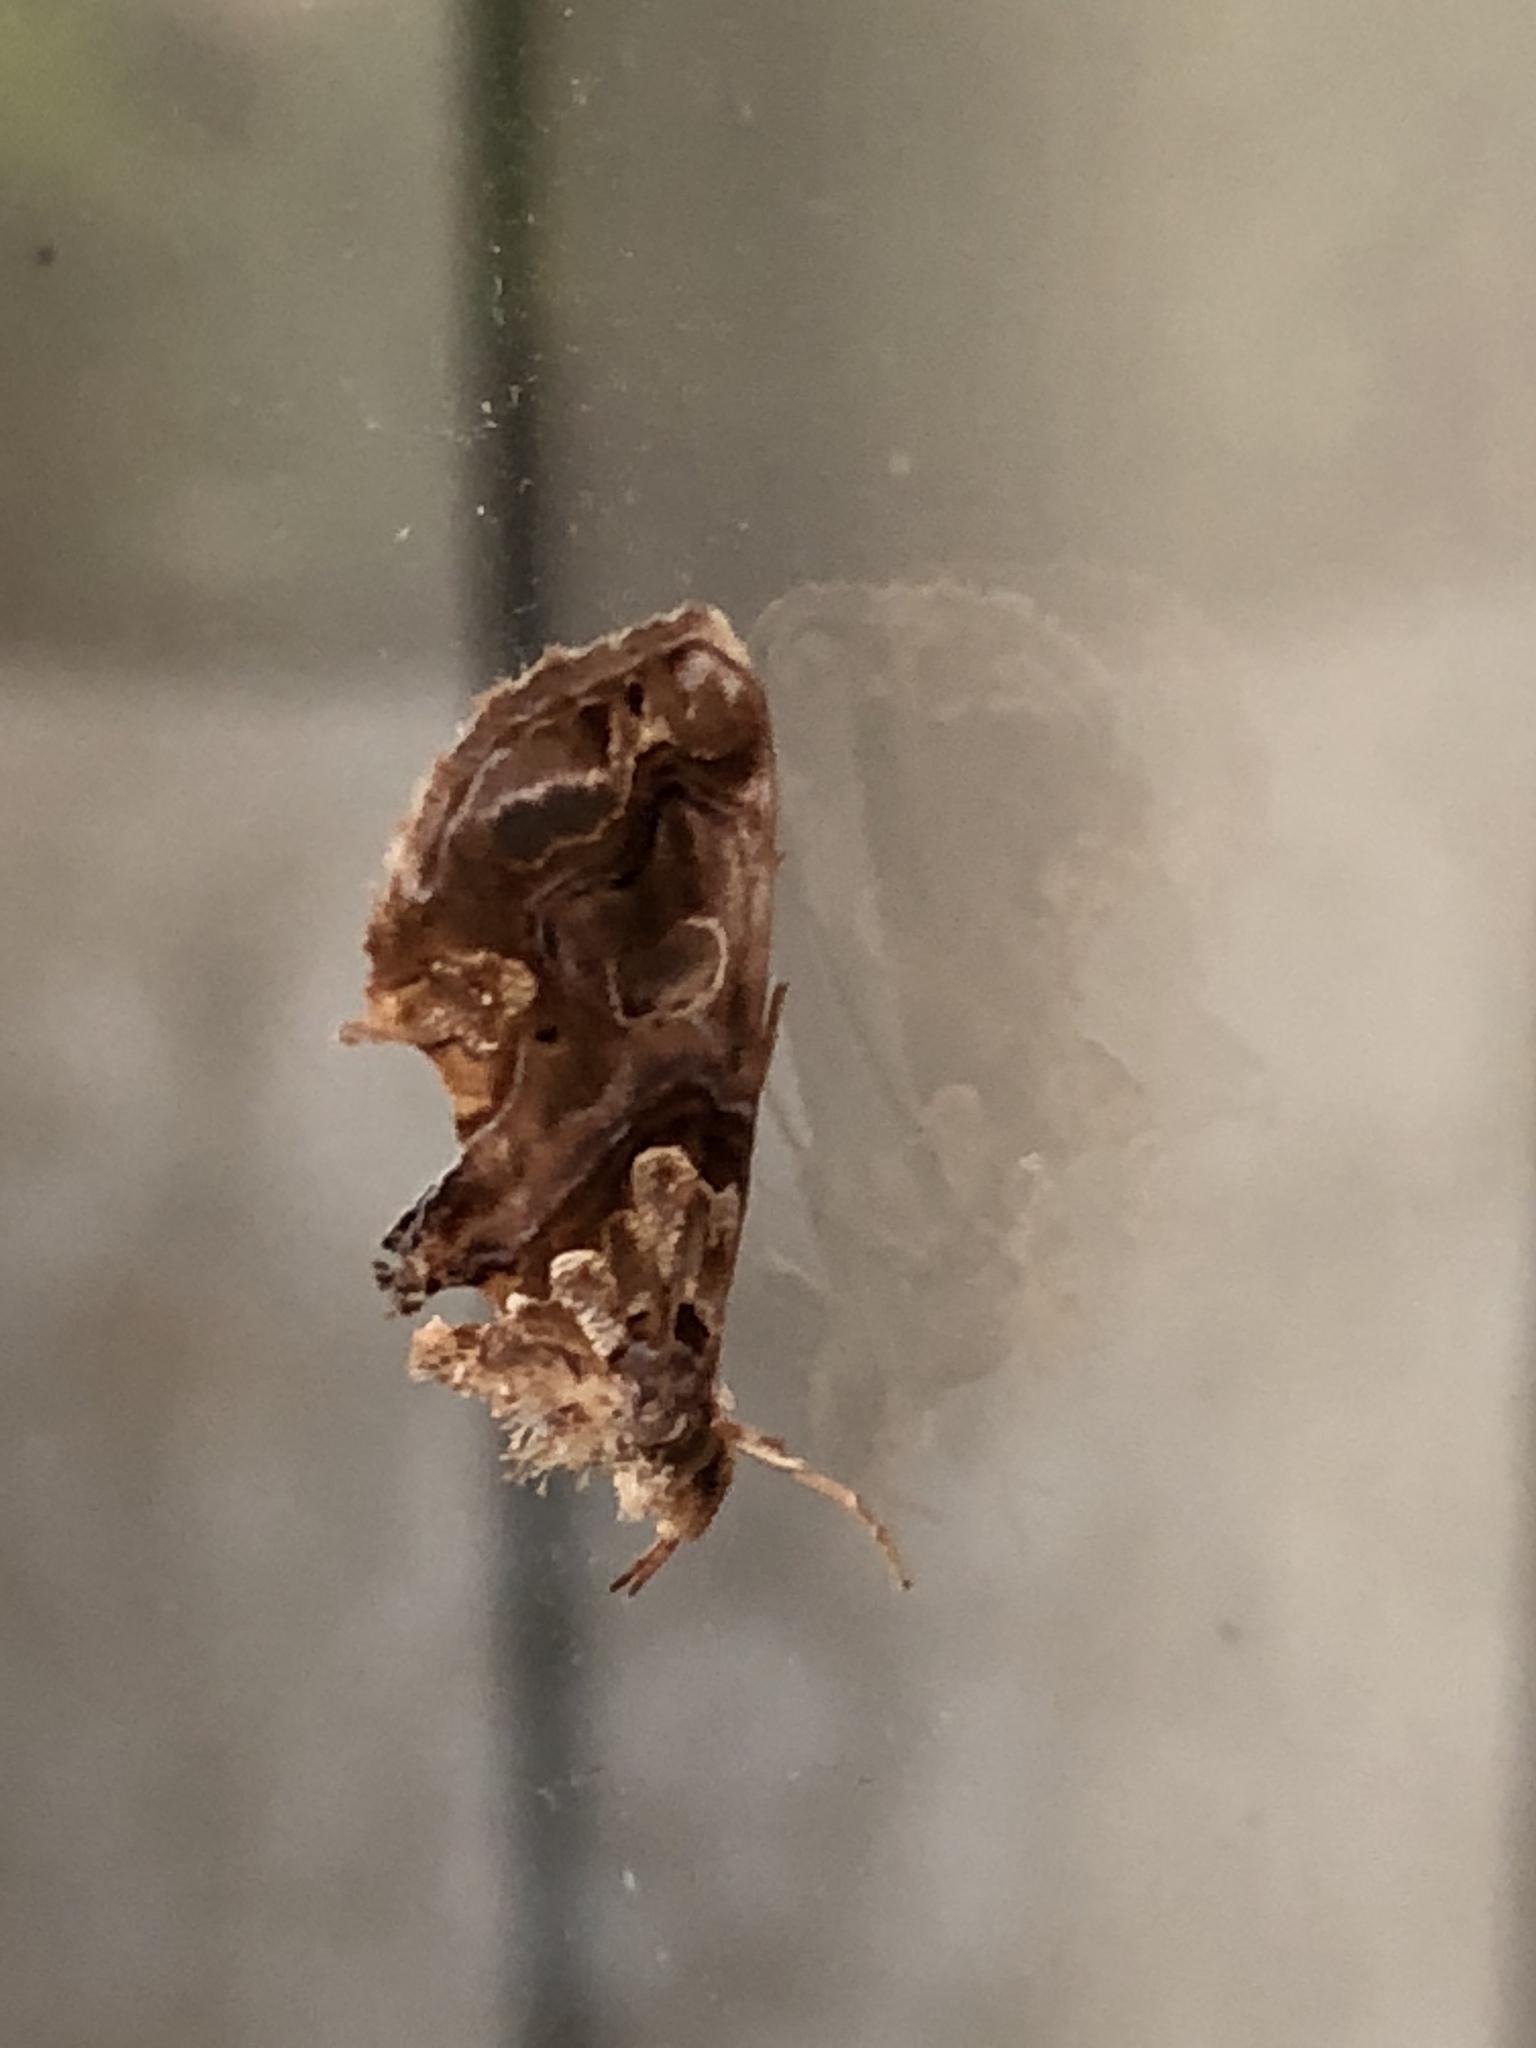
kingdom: Animalia
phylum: Arthropoda
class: Insecta
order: Lepidoptera
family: Erebidae
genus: Plusiodonta
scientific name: Plusiodonta compressipalpis
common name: Moonseed moth
